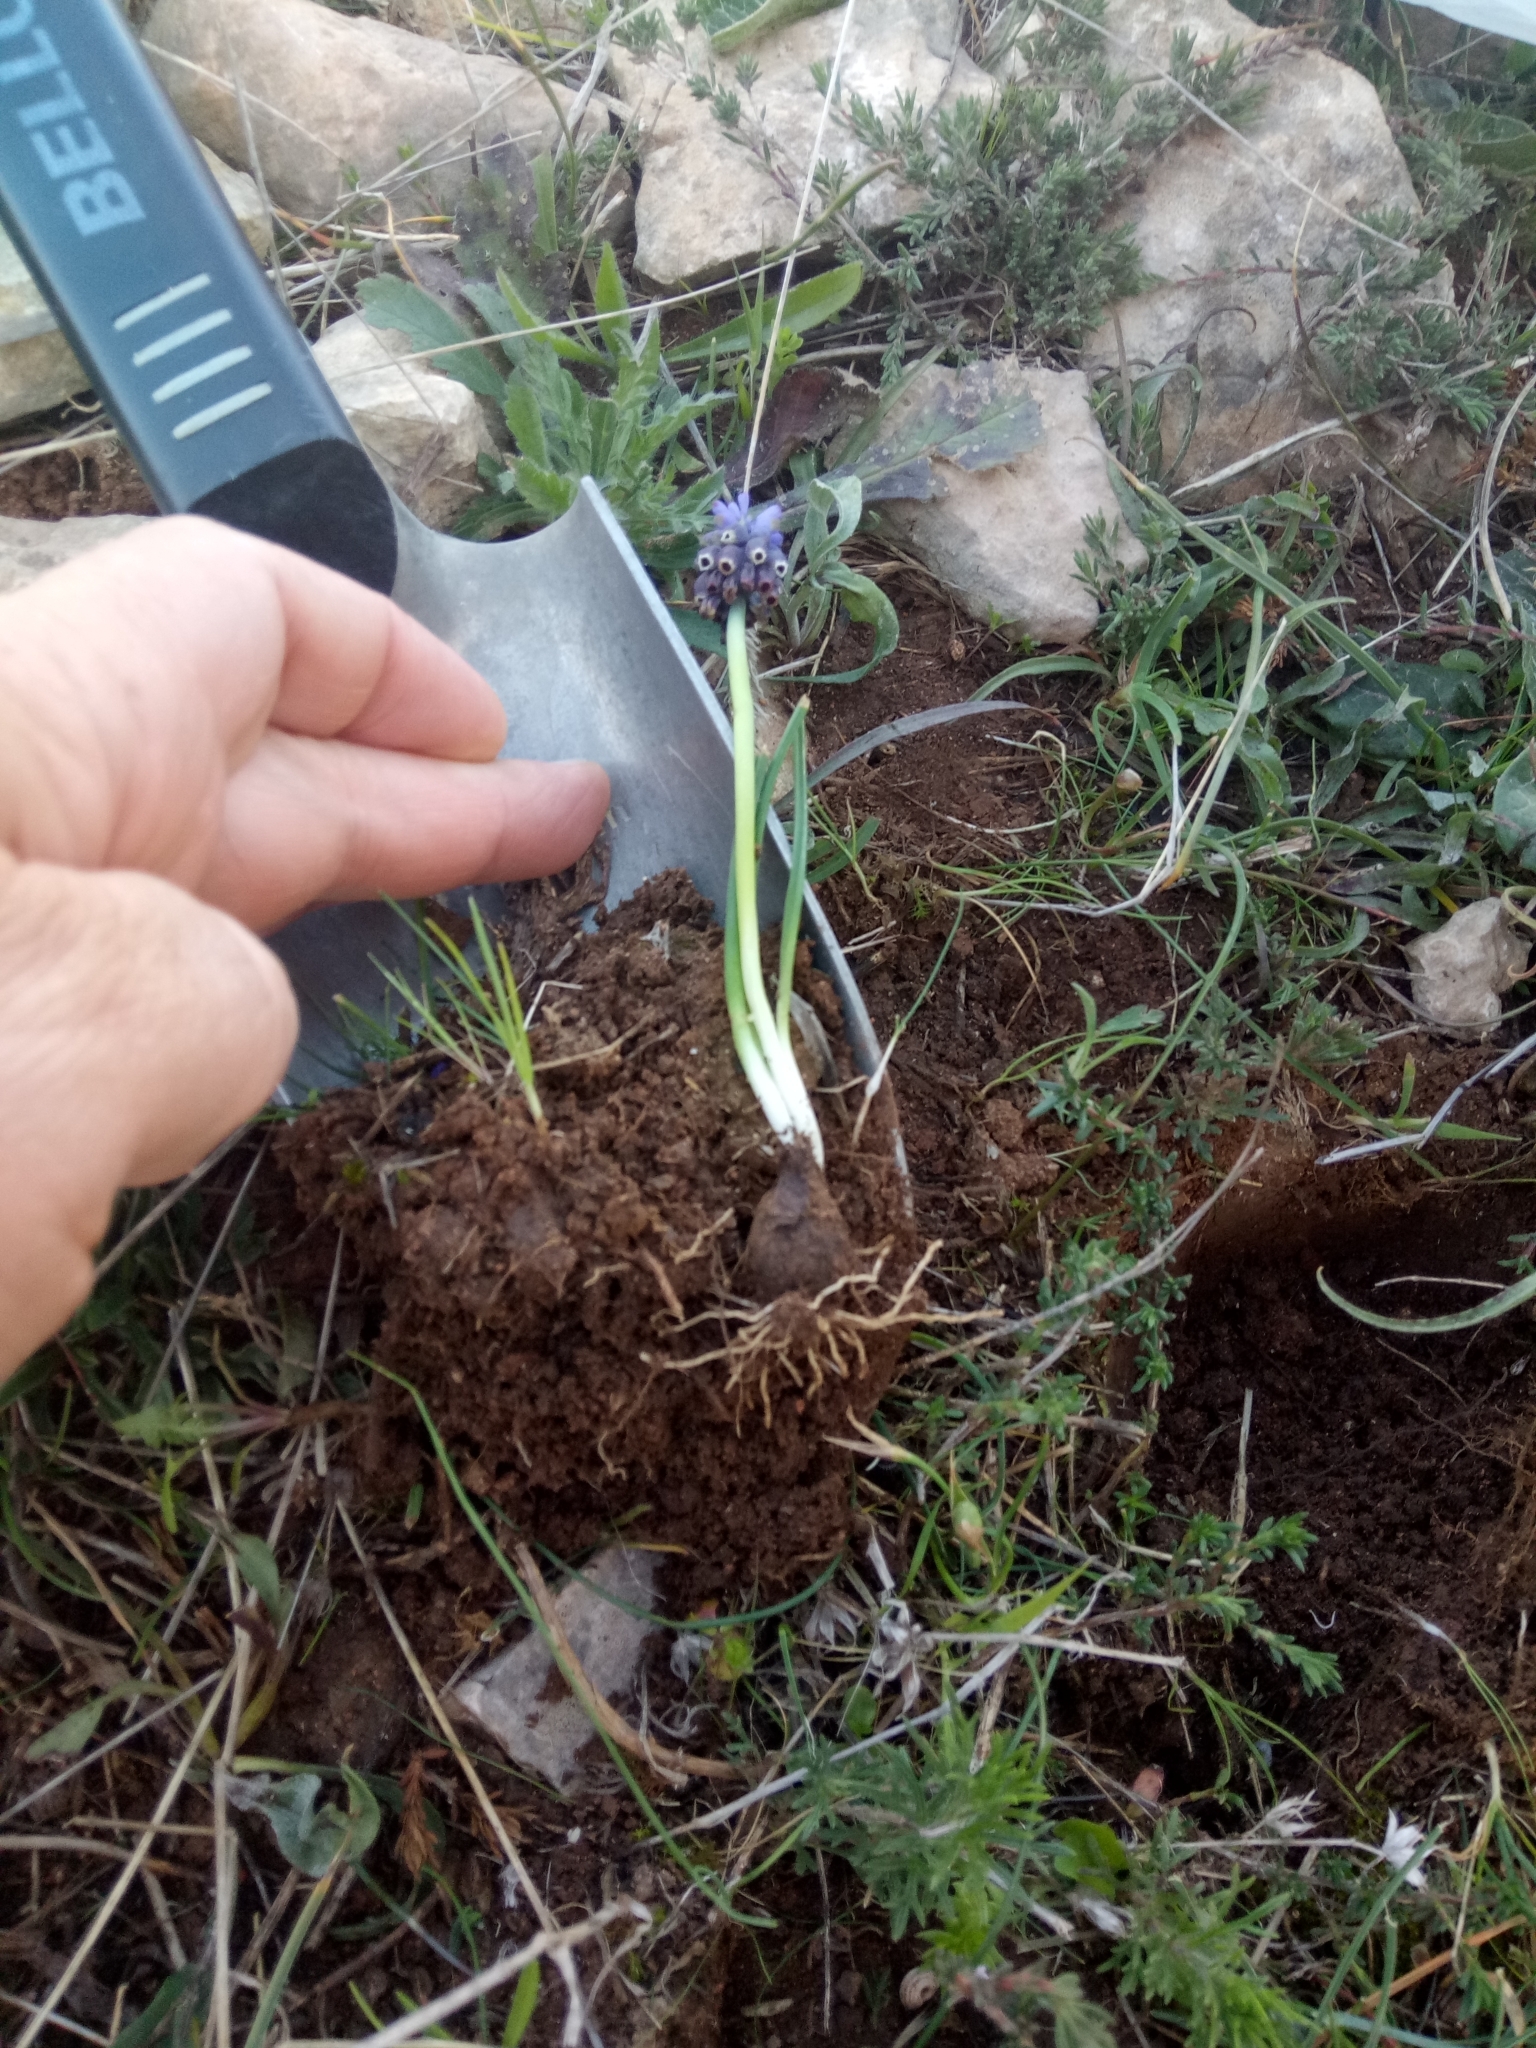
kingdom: Plantae
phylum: Tracheophyta
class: Liliopsida
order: Asparagales
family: Asparagaceae
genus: Muscari
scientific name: Muscari baeticum
